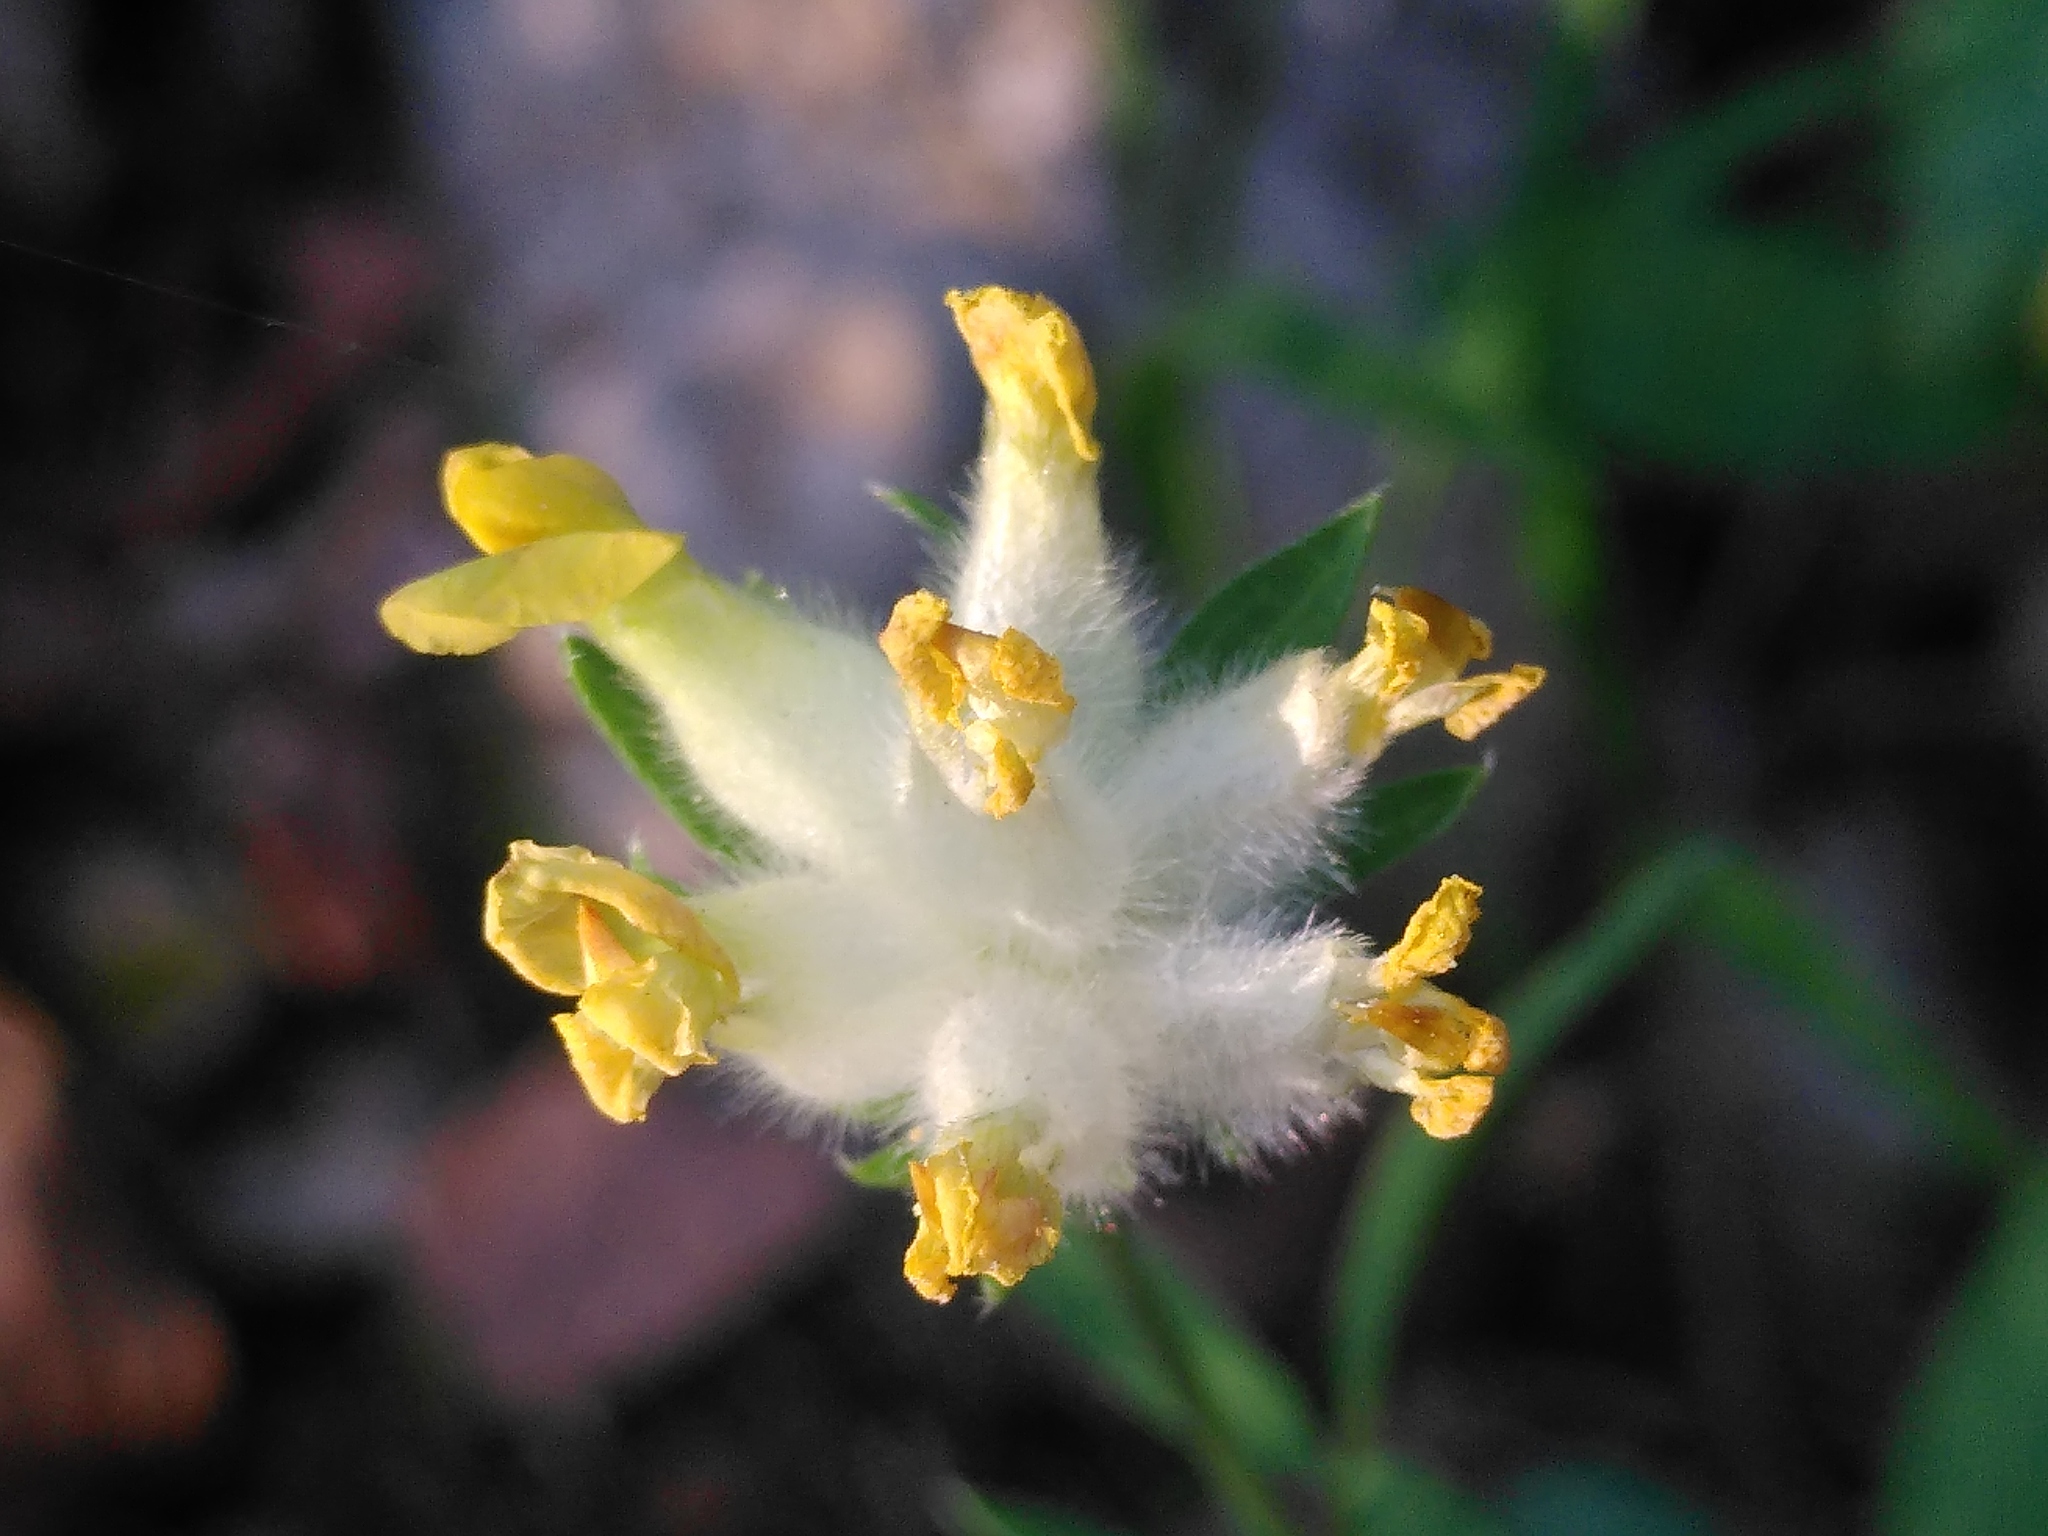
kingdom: Plantae
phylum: Tracheophyta
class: Magnoliopsida
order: Fabales
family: Fabaceae
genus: Anthyllis
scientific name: Anthyllis vulneraria
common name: Kidney vetch
